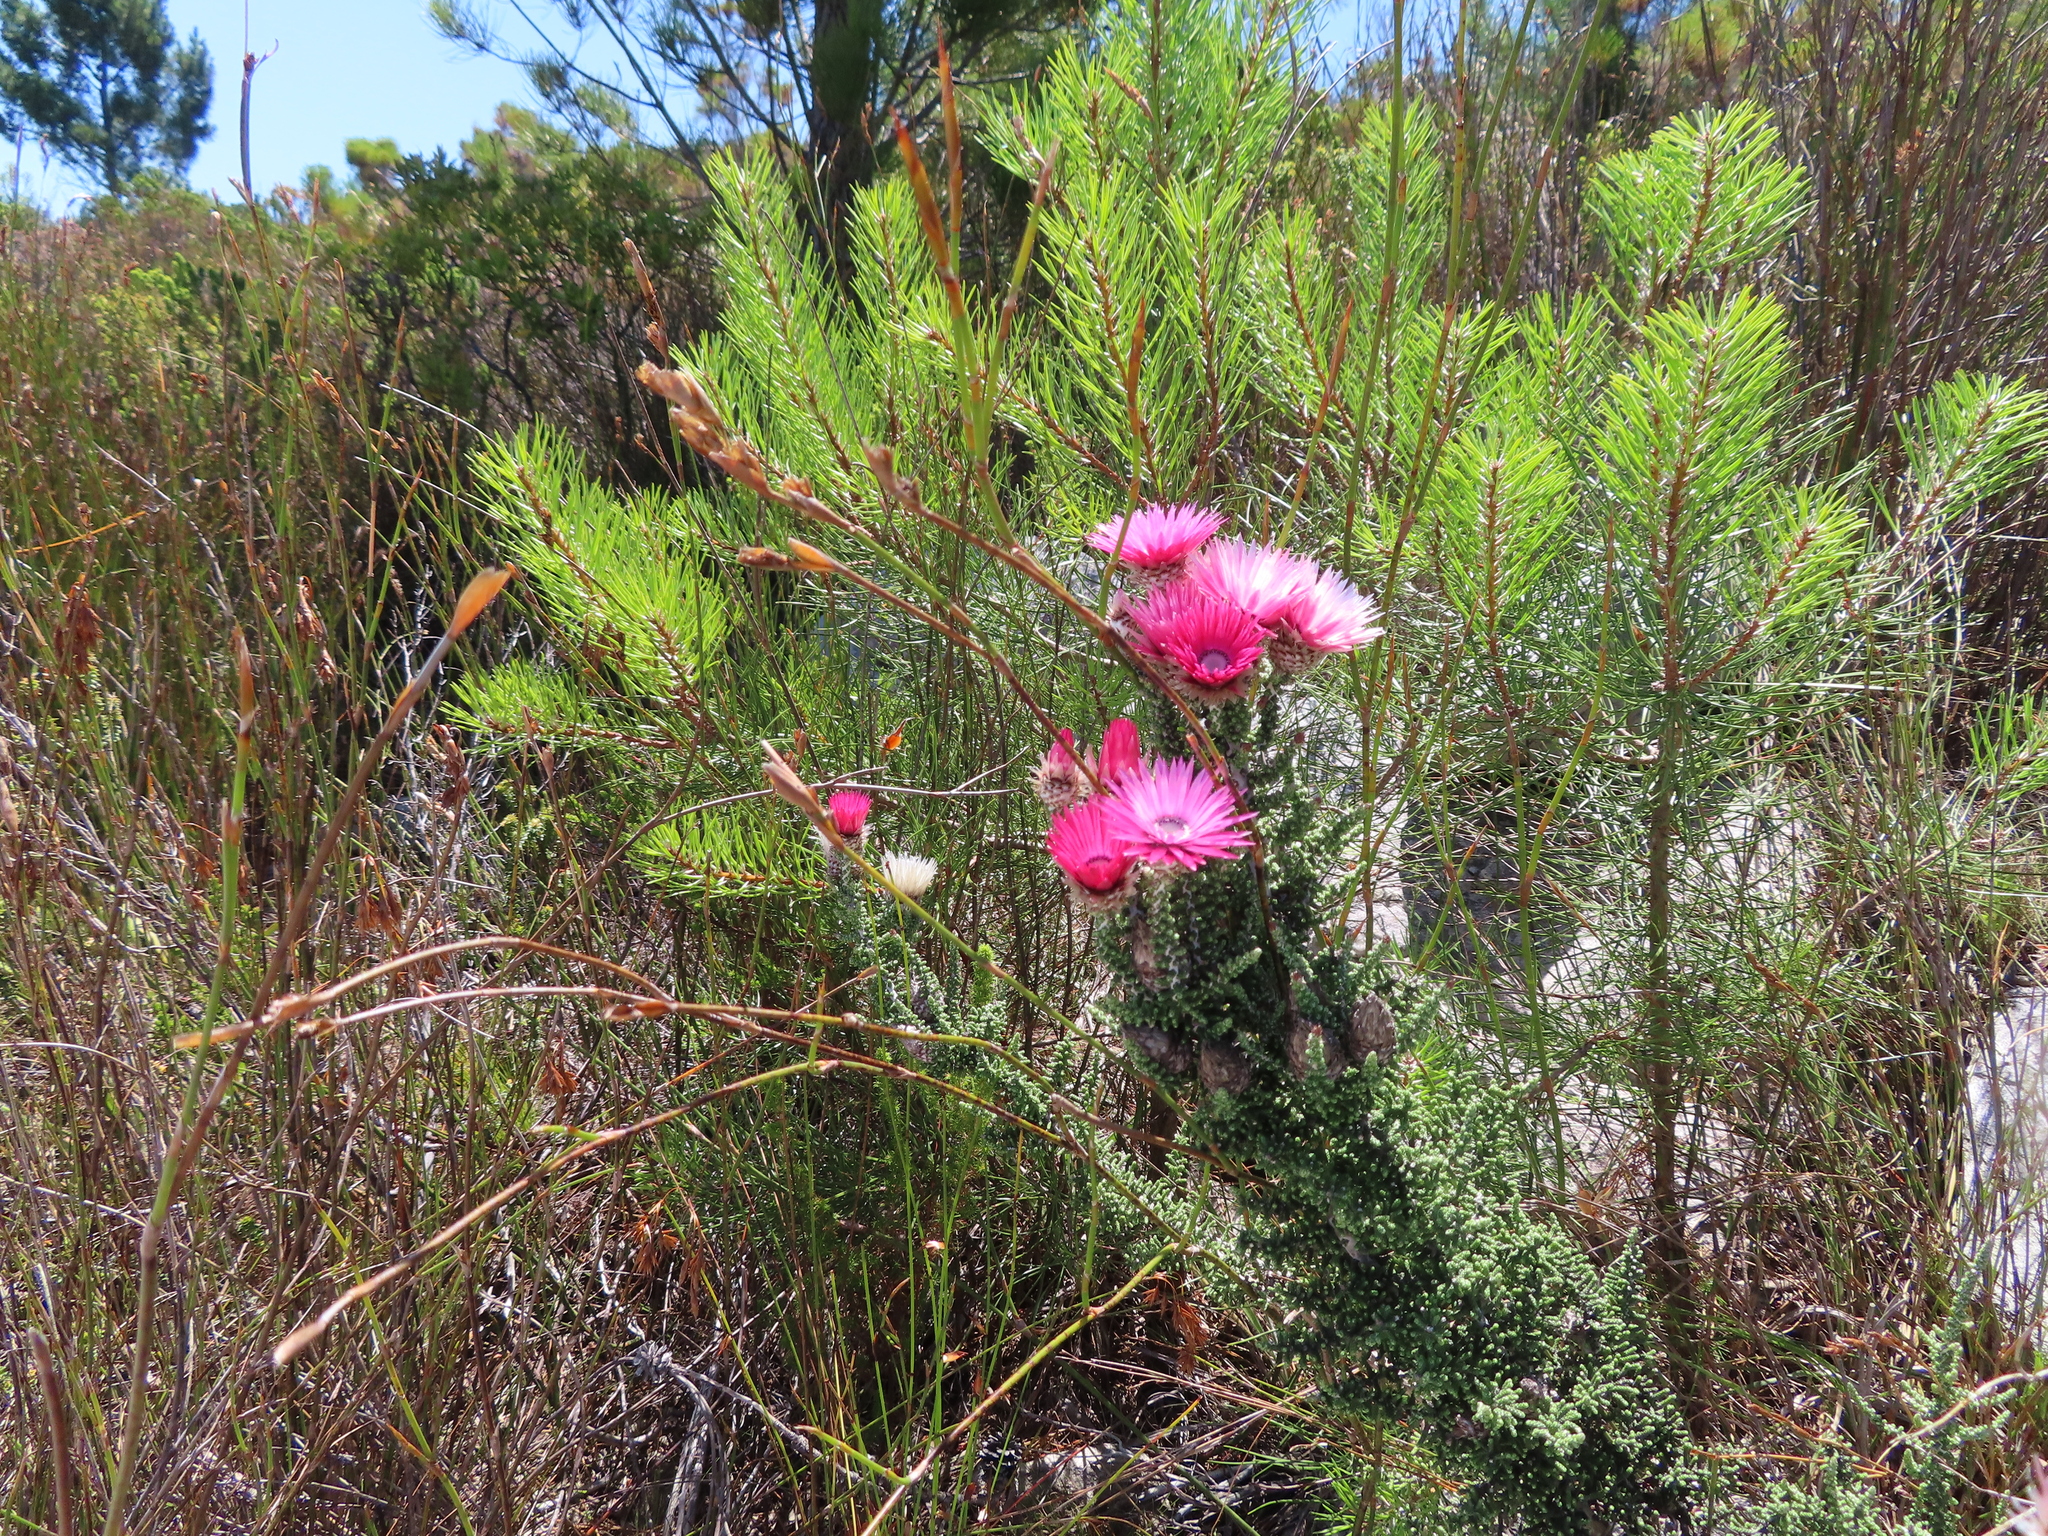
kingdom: Plantae
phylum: Tracheophyta
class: Magnoliopsida
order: Asterales
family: Asteraceae
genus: Phaenocoma
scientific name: Phaenocoma prolifera
